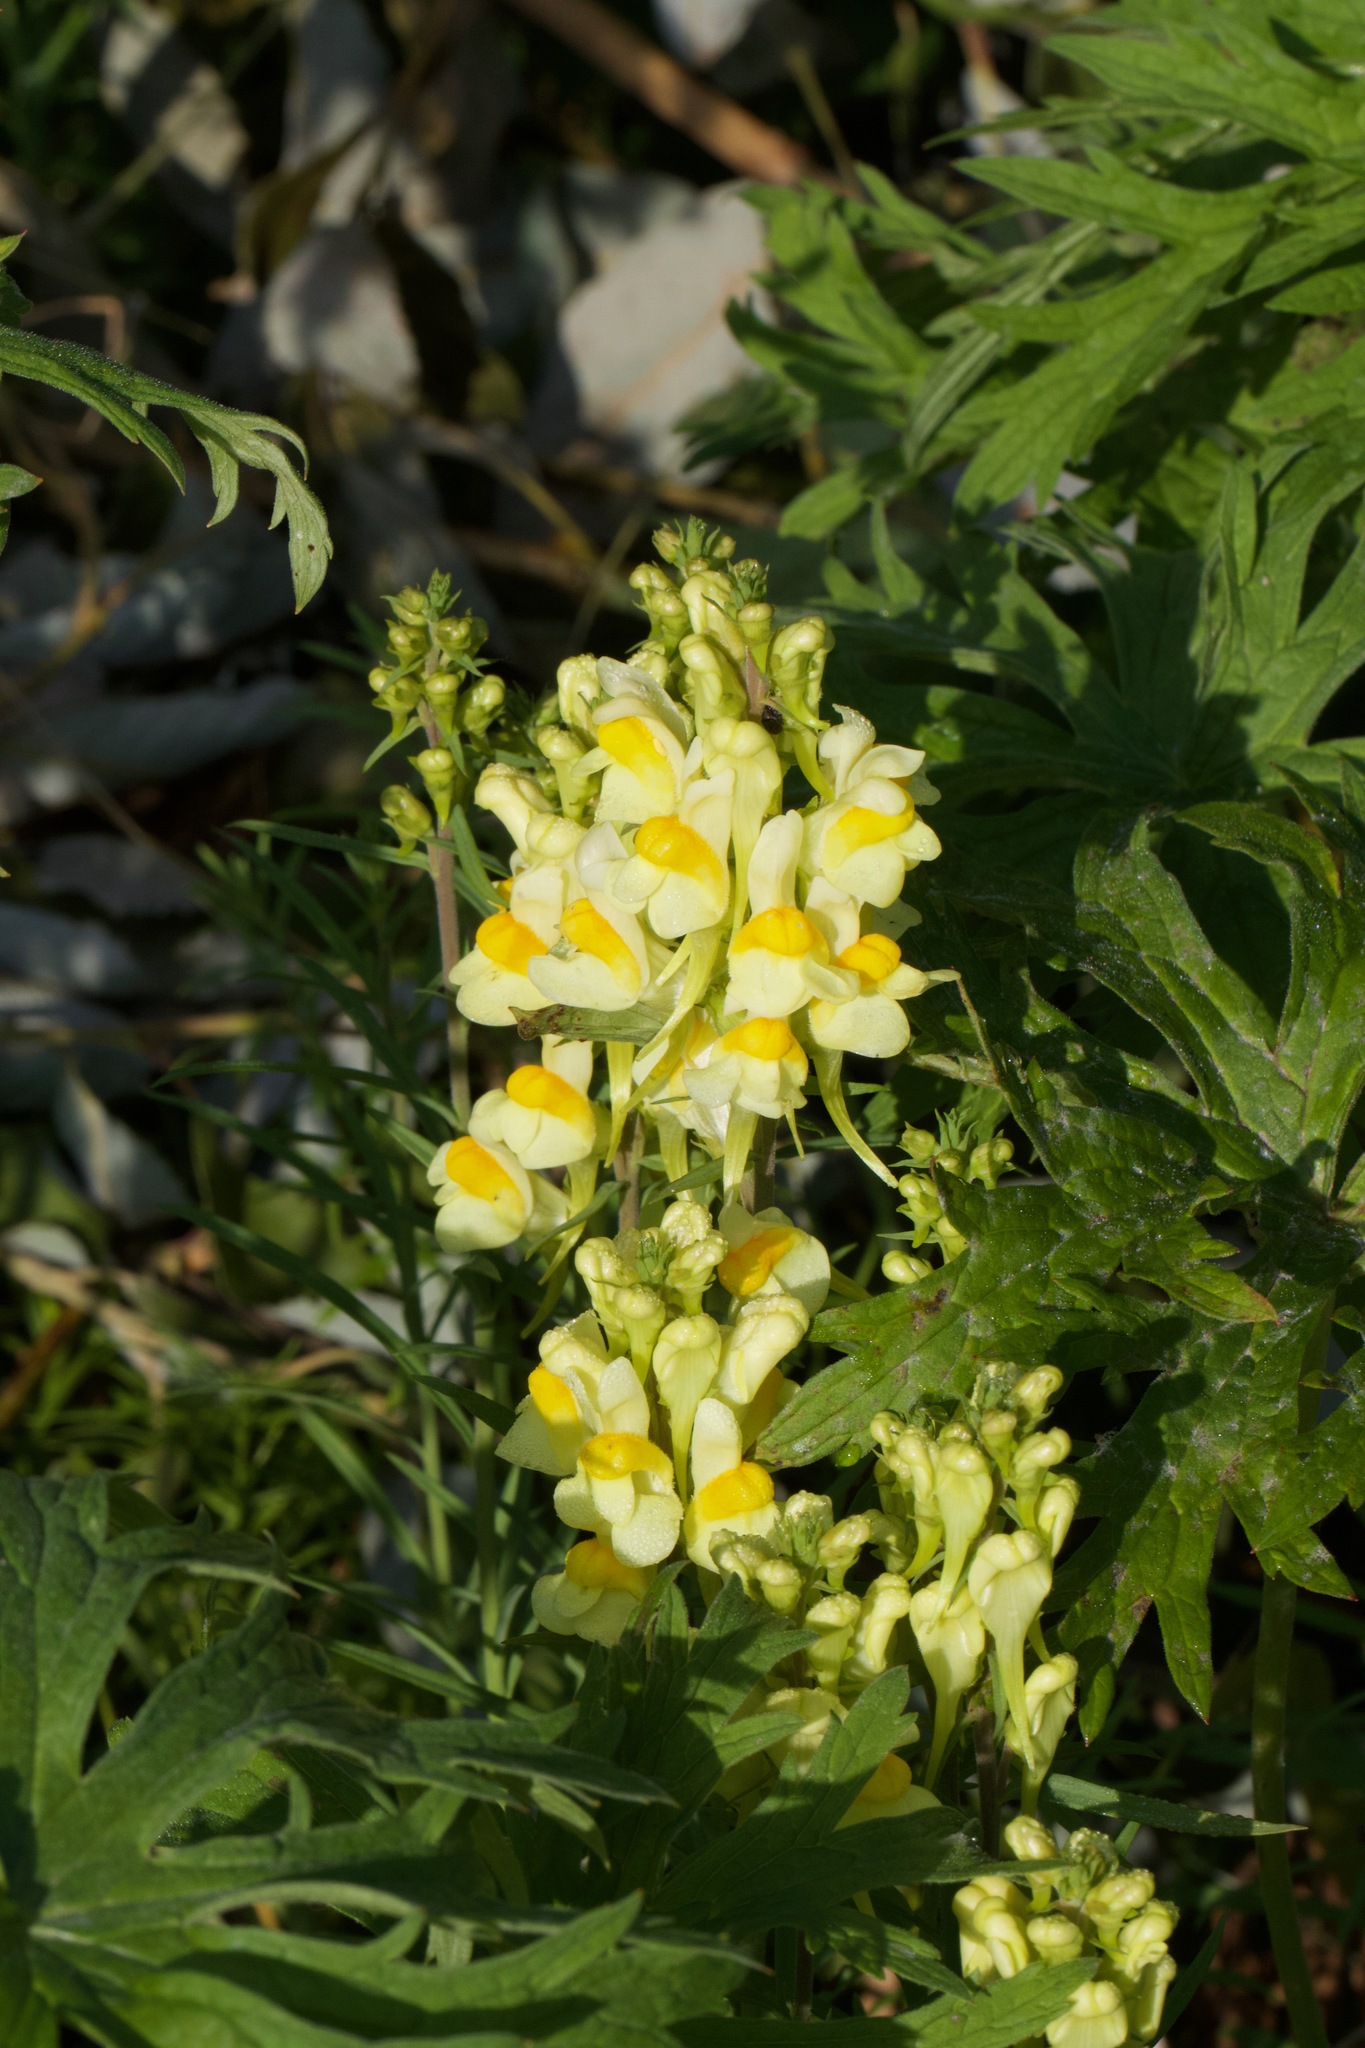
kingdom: Plantae
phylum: Tracheophyta
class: Magnoliopsida
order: Lamiales
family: Plantaginaceae
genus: Linaria
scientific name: Linaria vulgaris
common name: Butter and eggs
